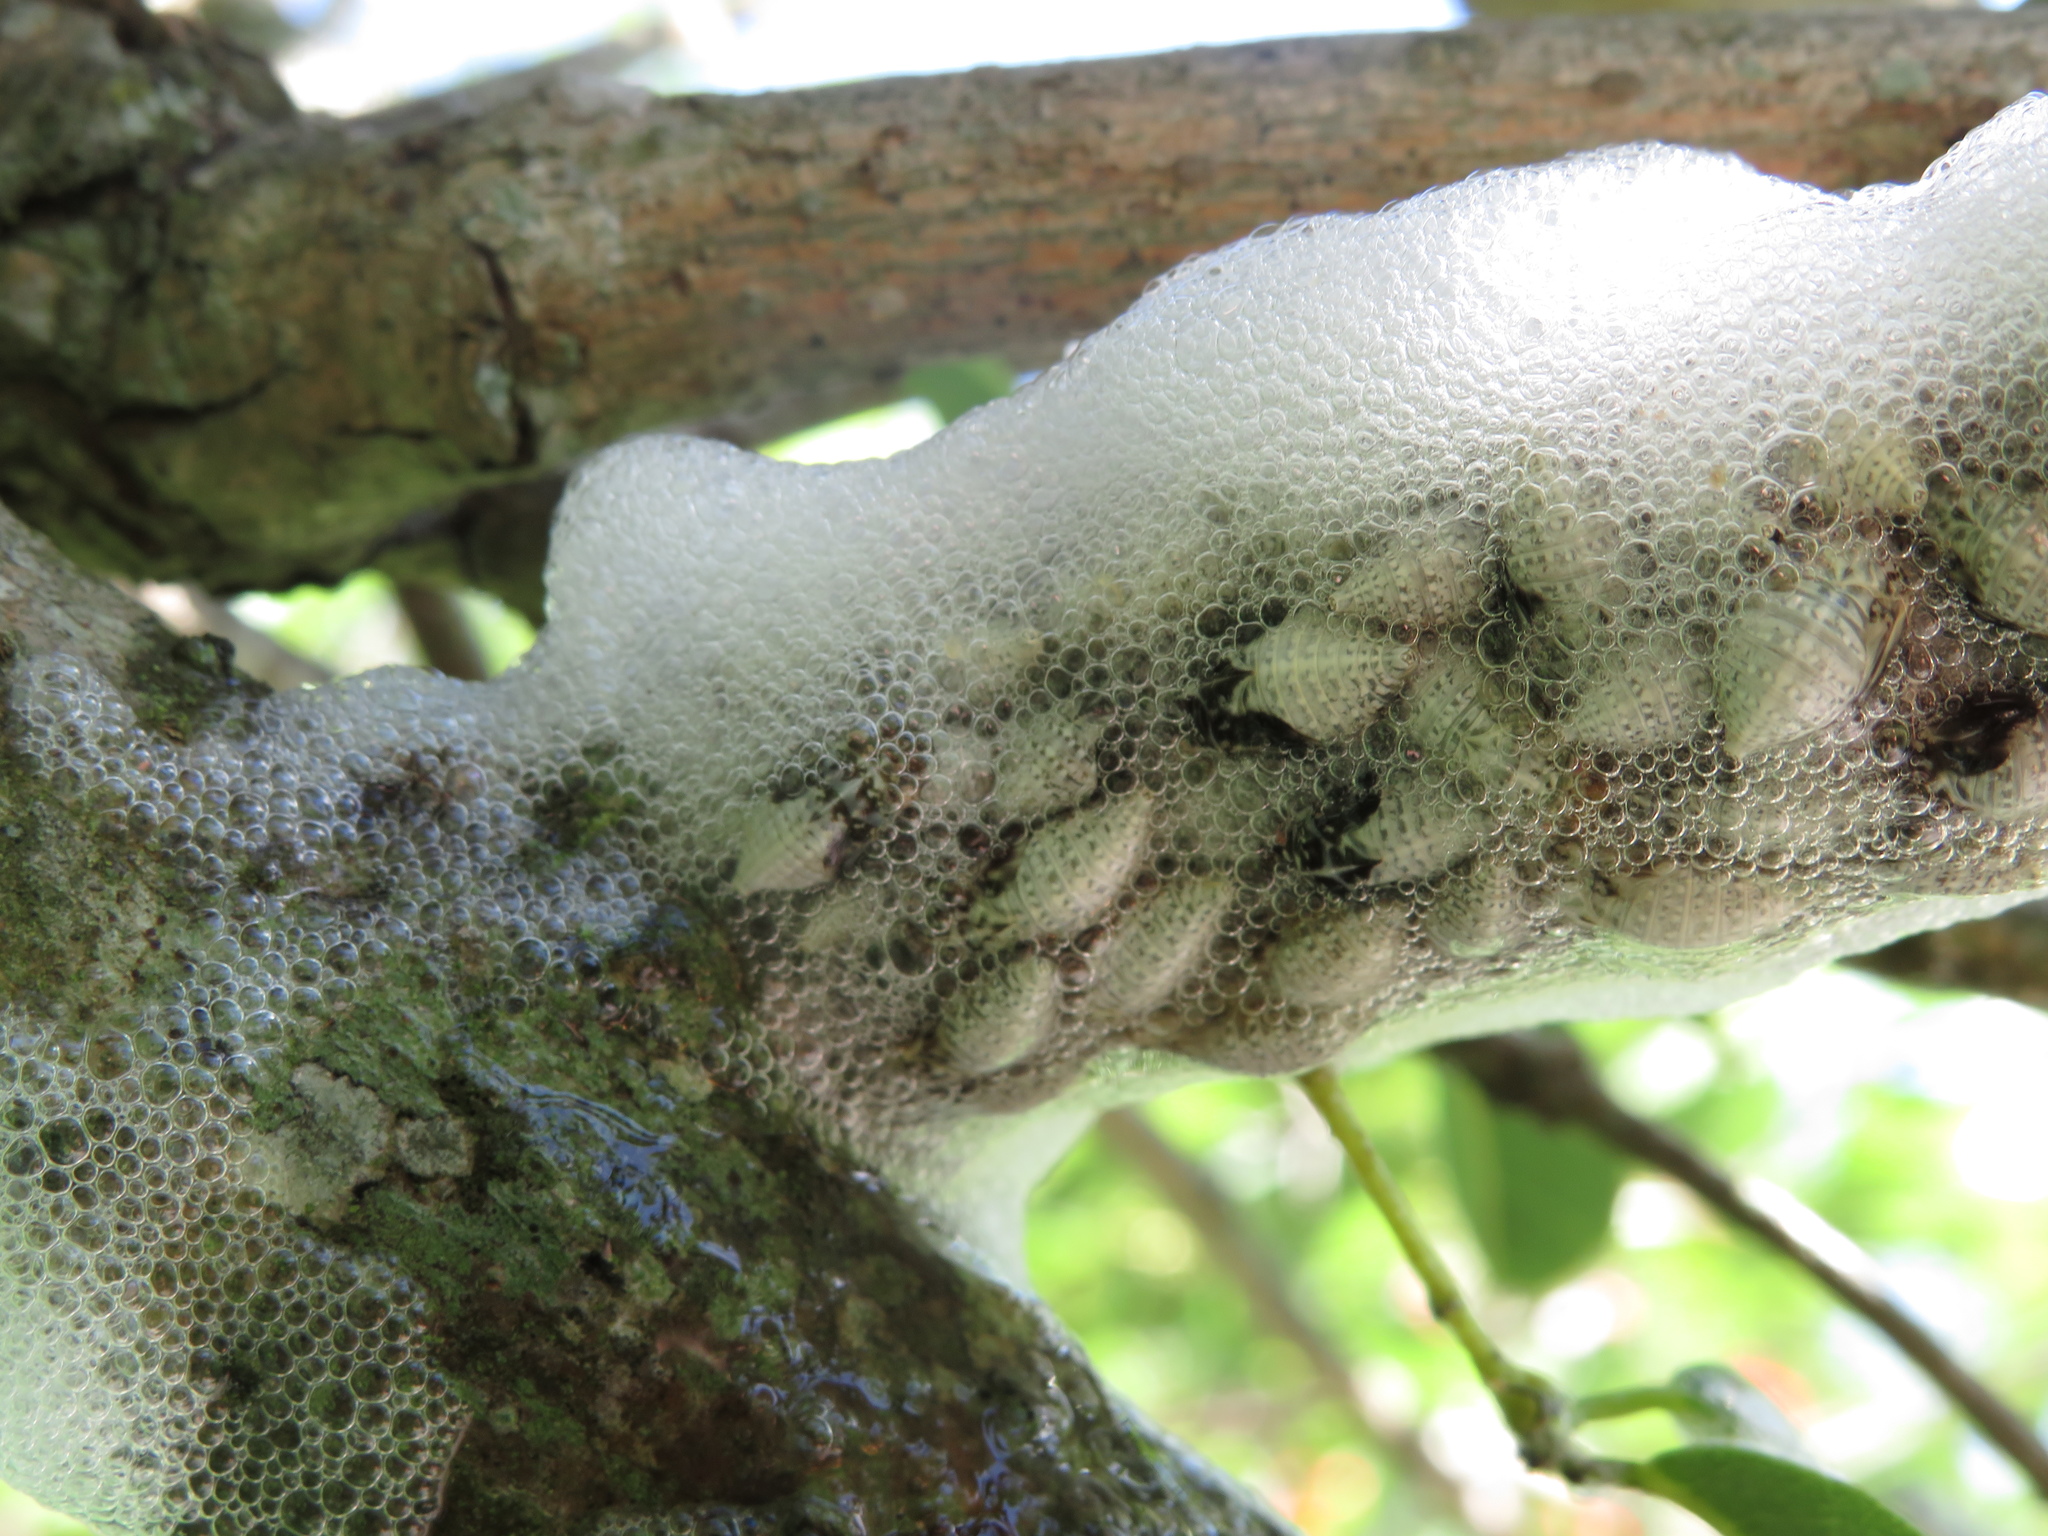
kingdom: Animalia
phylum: Arthropoda
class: Insecta
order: Hemiptera
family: Aphrophoridae
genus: Cephisus
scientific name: Cephisus siccifolius
